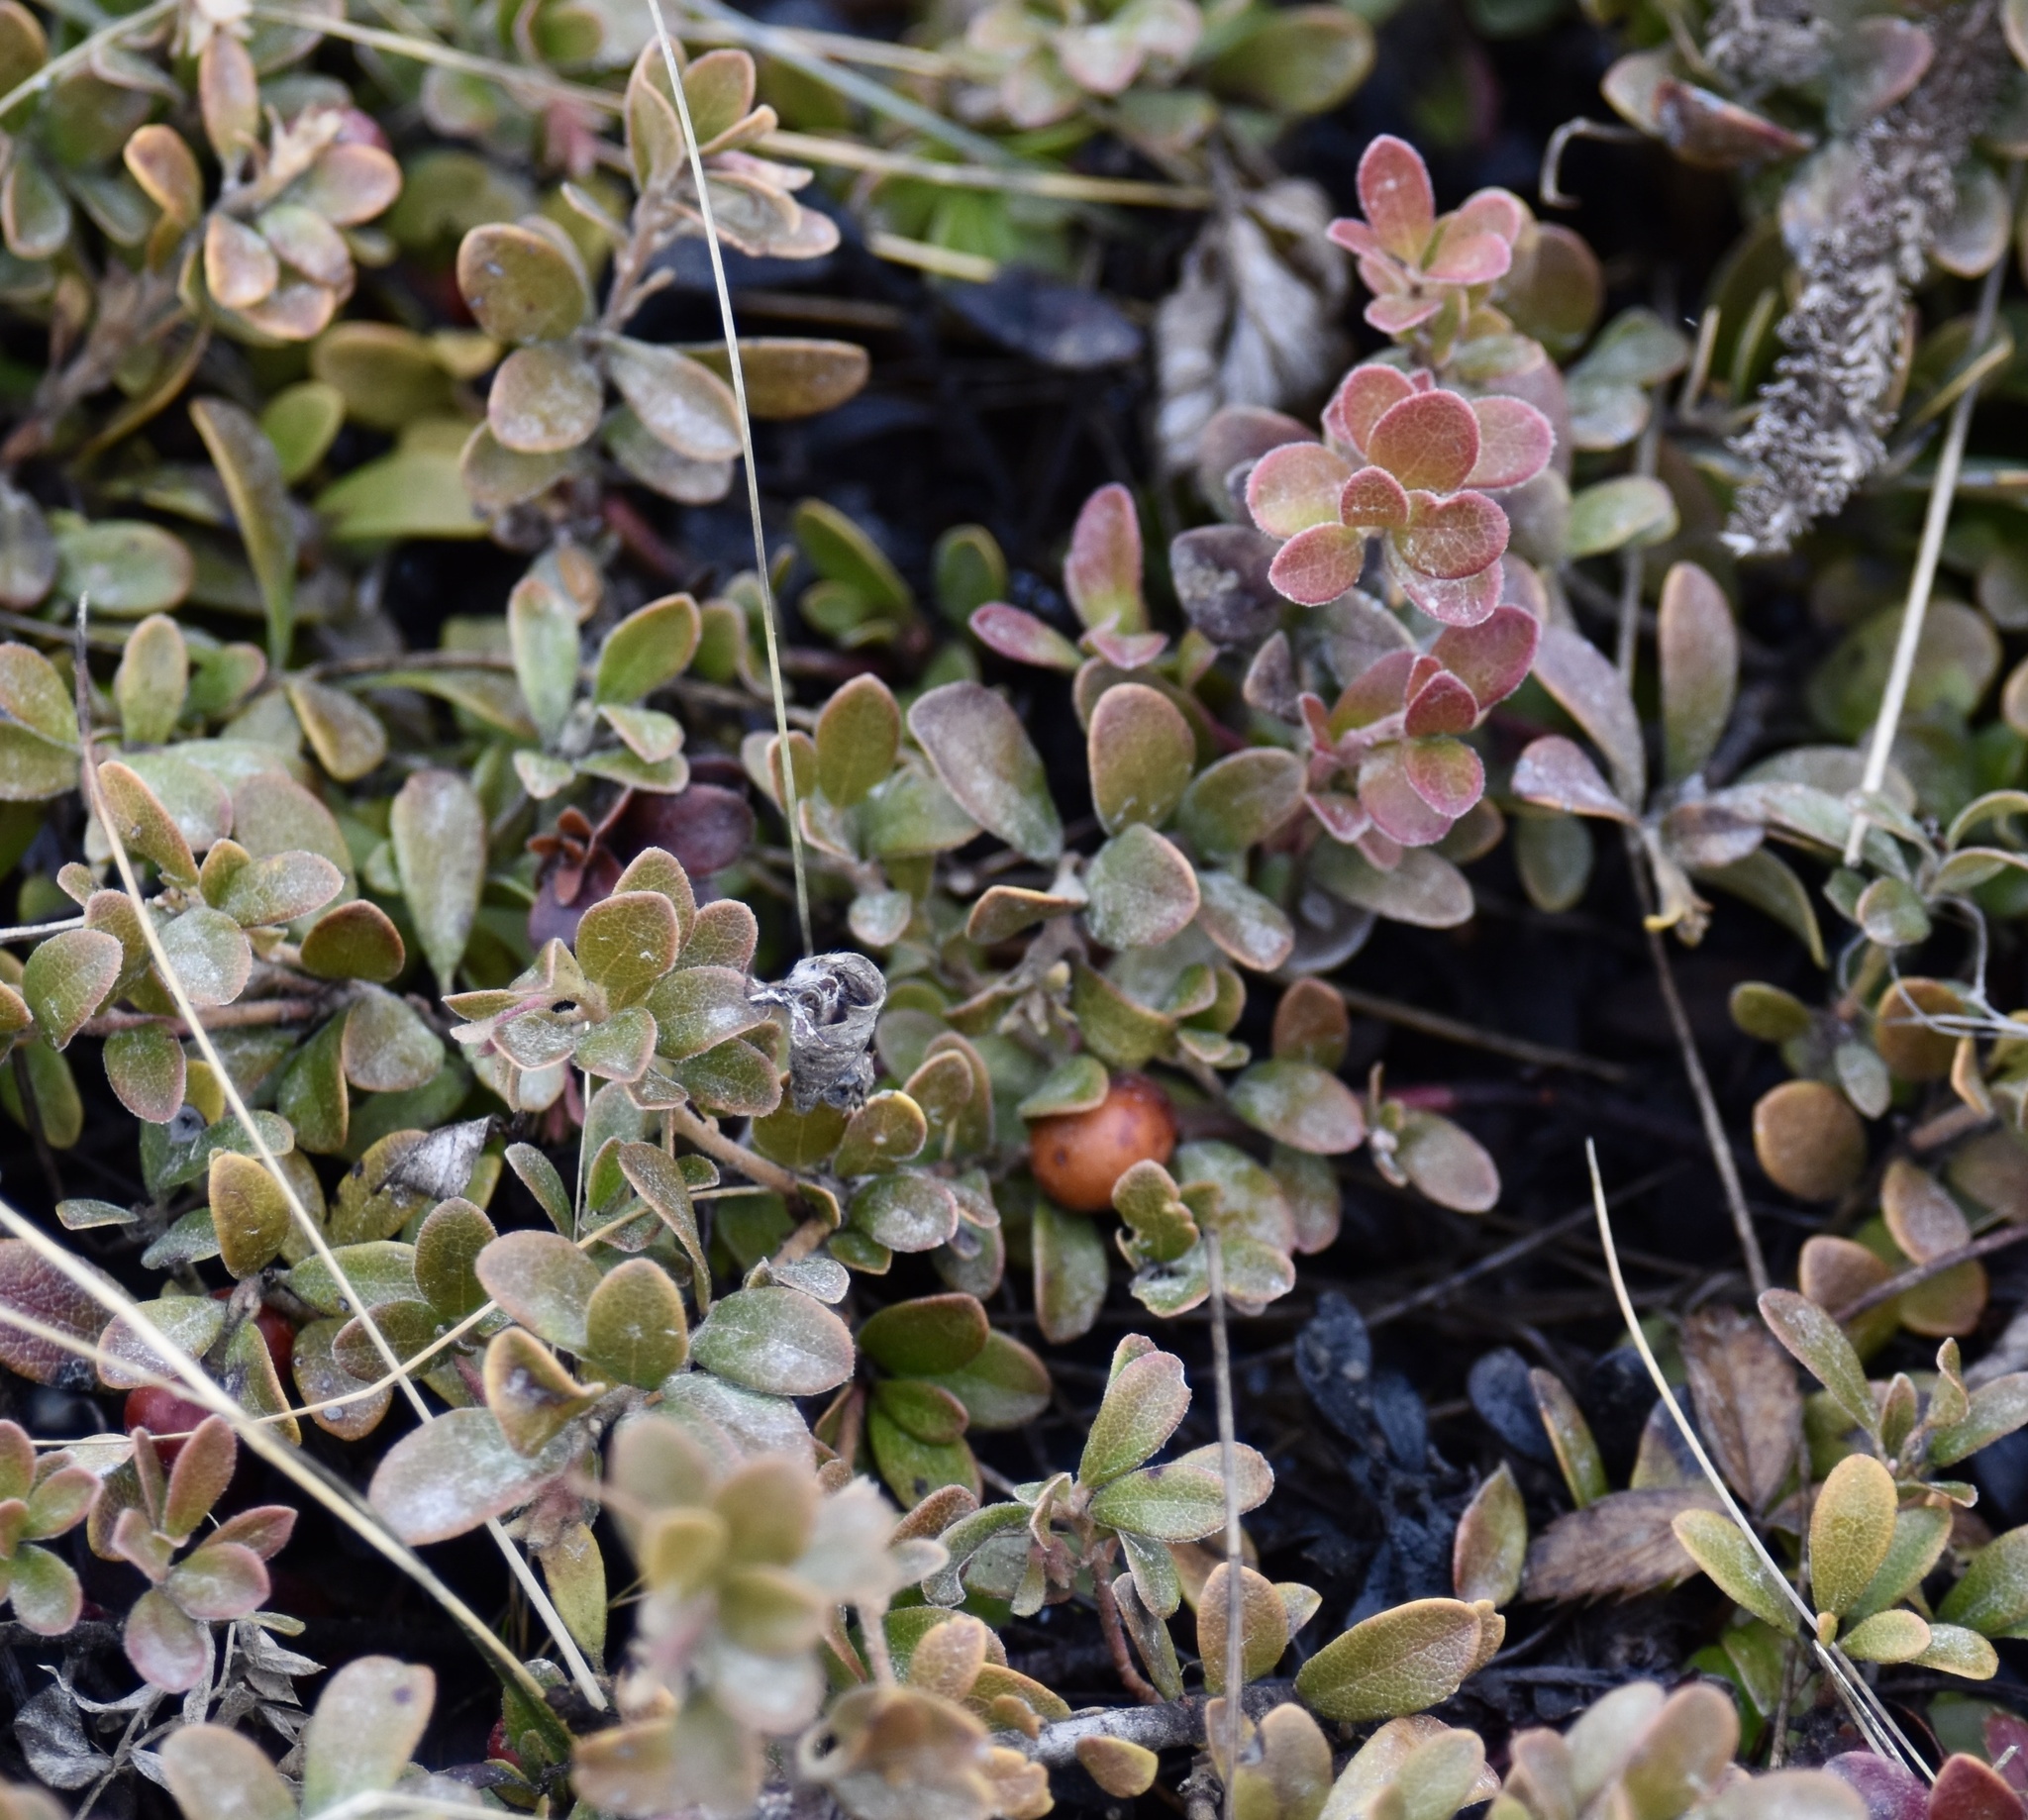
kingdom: Plantae
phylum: Tracheophyta
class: Magnoliopsida
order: Ericales
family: Ericaceae
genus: Arctostaphylos
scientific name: Arctostaphylos uva-ursi
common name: Bearberry
